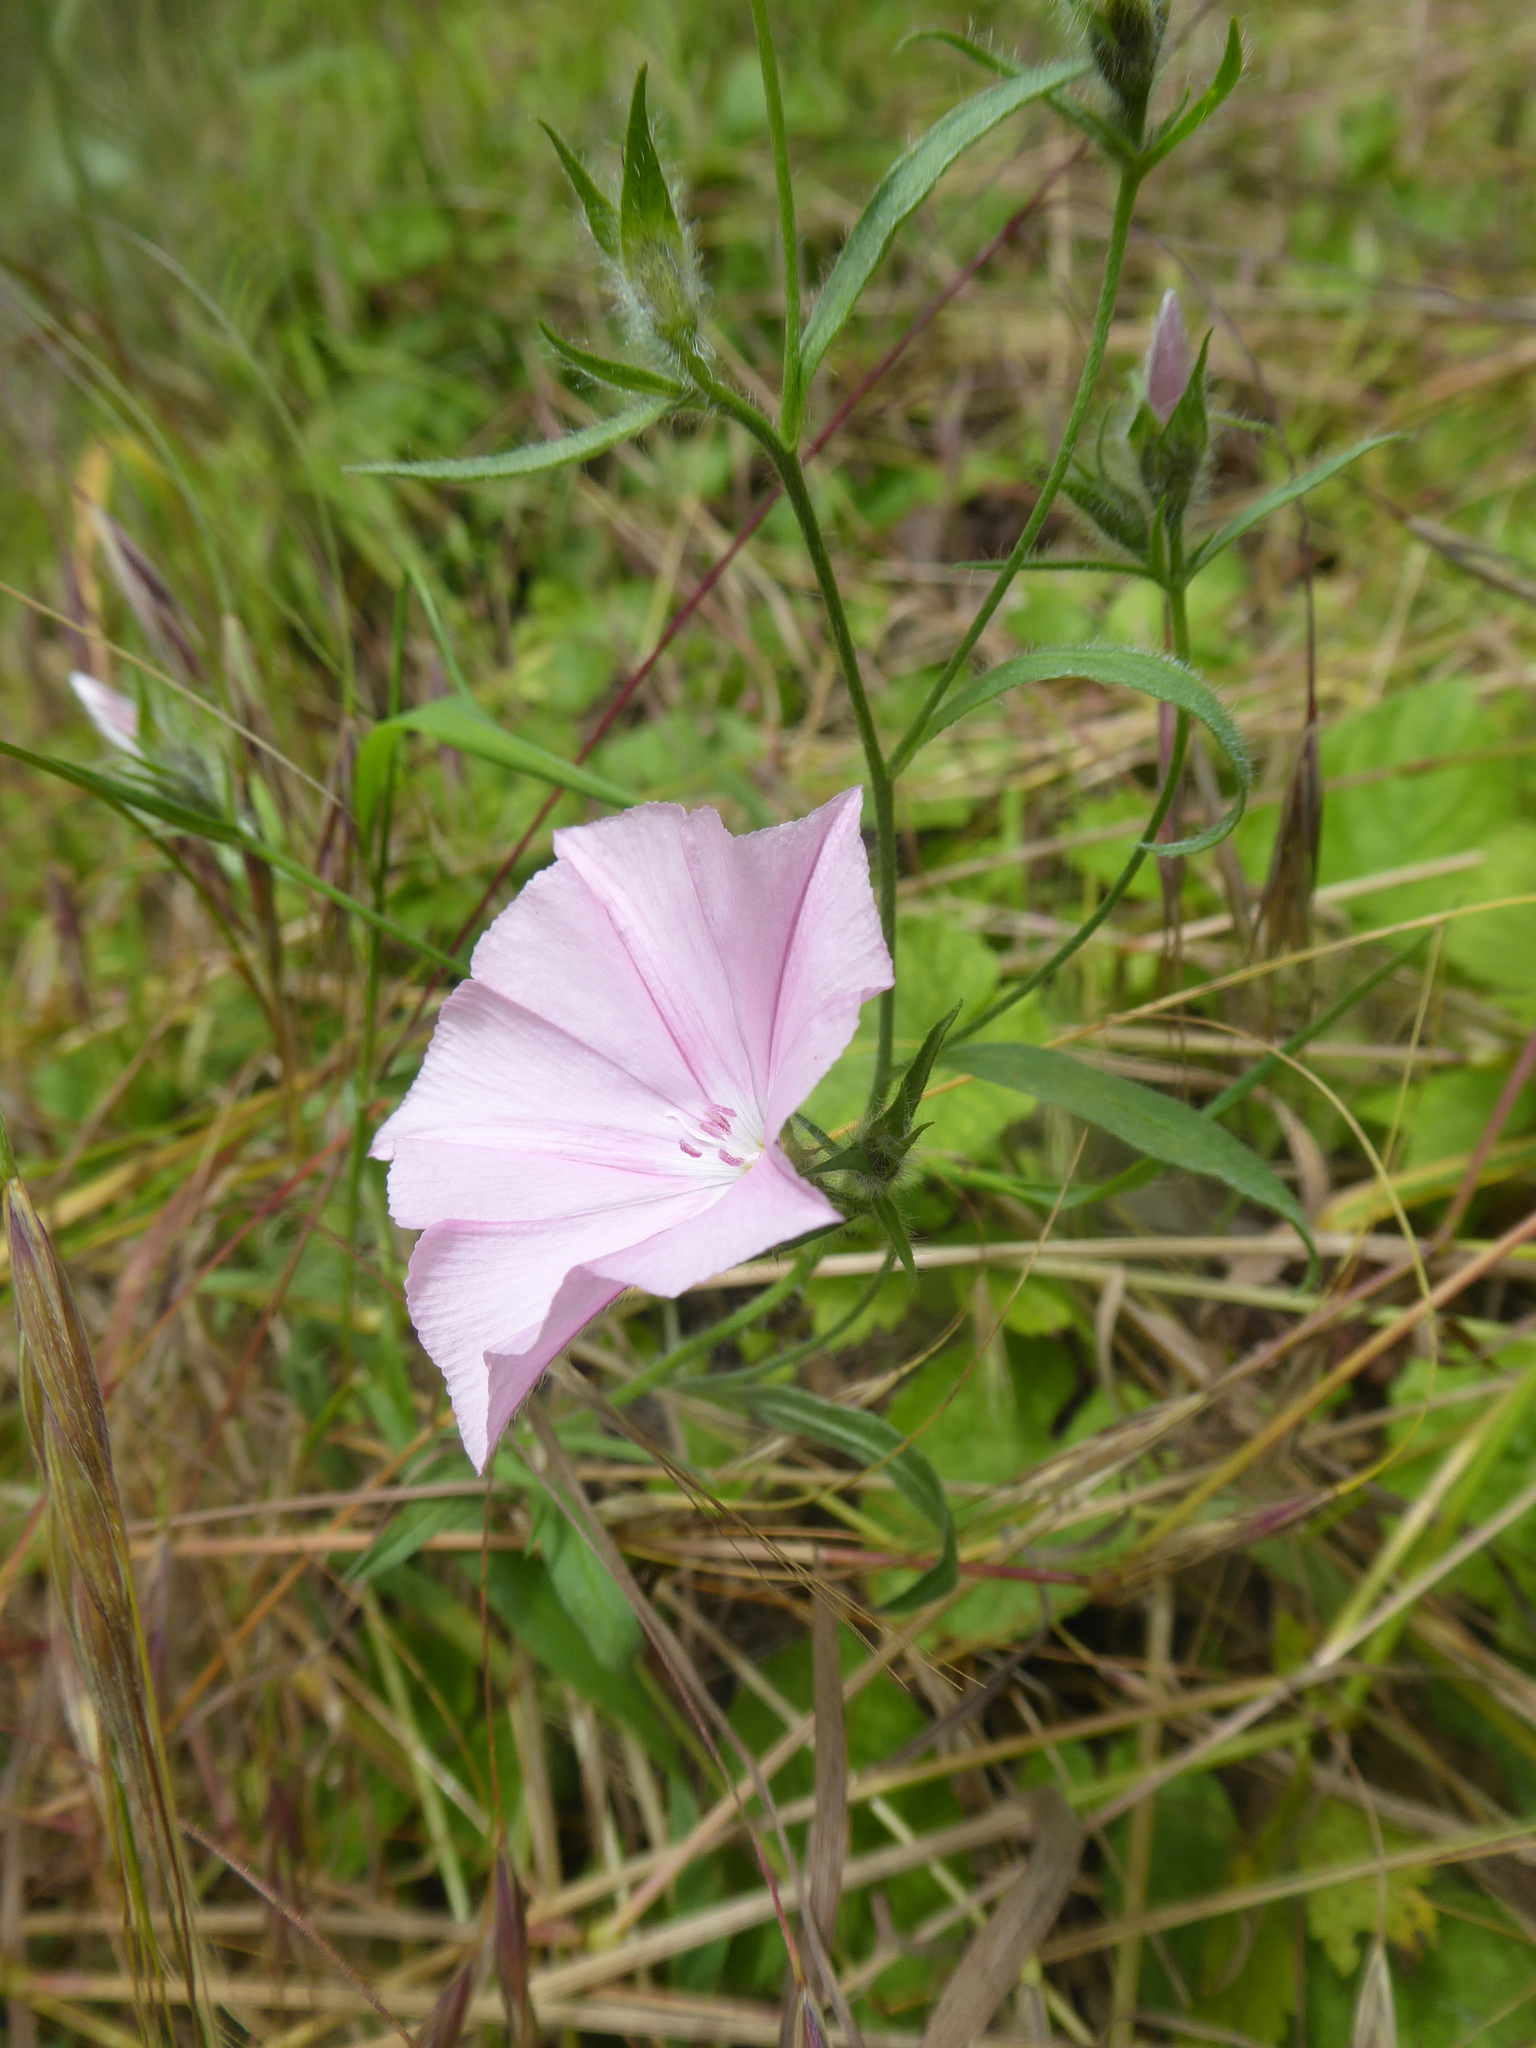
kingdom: Plantae
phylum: Tracheophyta
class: Magnoliopsida
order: Solanales
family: Convolvulaceae
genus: Convolvulus
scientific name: Convolvulus cantabrica
